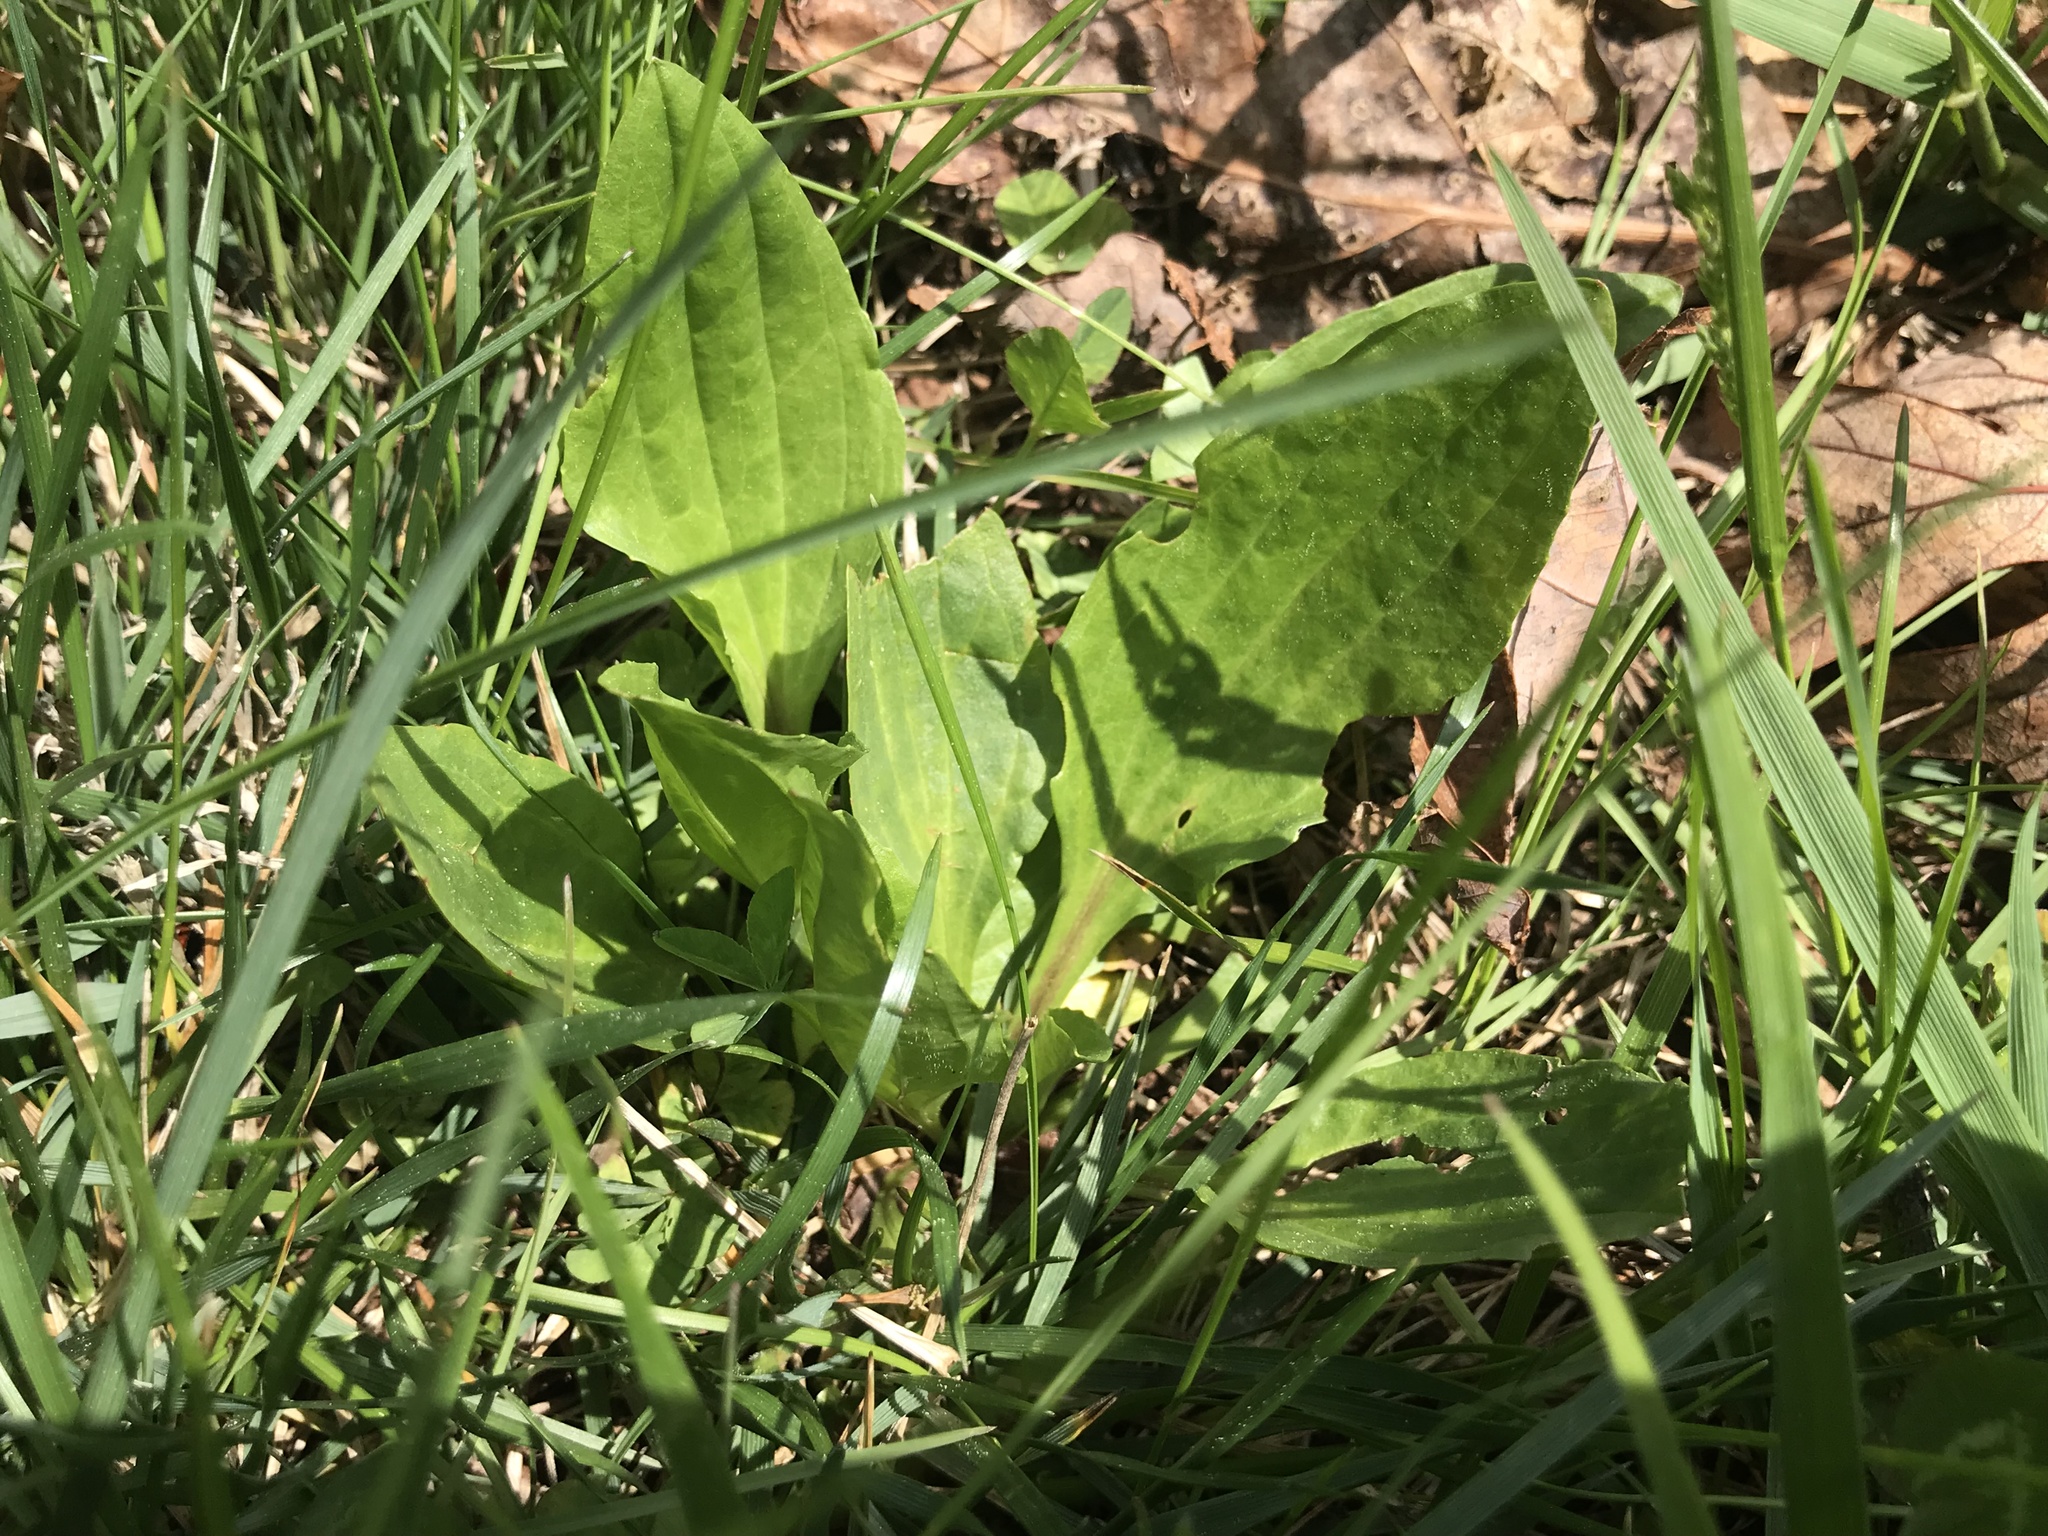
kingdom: Plantae
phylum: Tracheophyta
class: Magnoliopsida
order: Lamiales
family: Plantaginaceae
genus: Plantago
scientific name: Plantago rugelii
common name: American plantain
